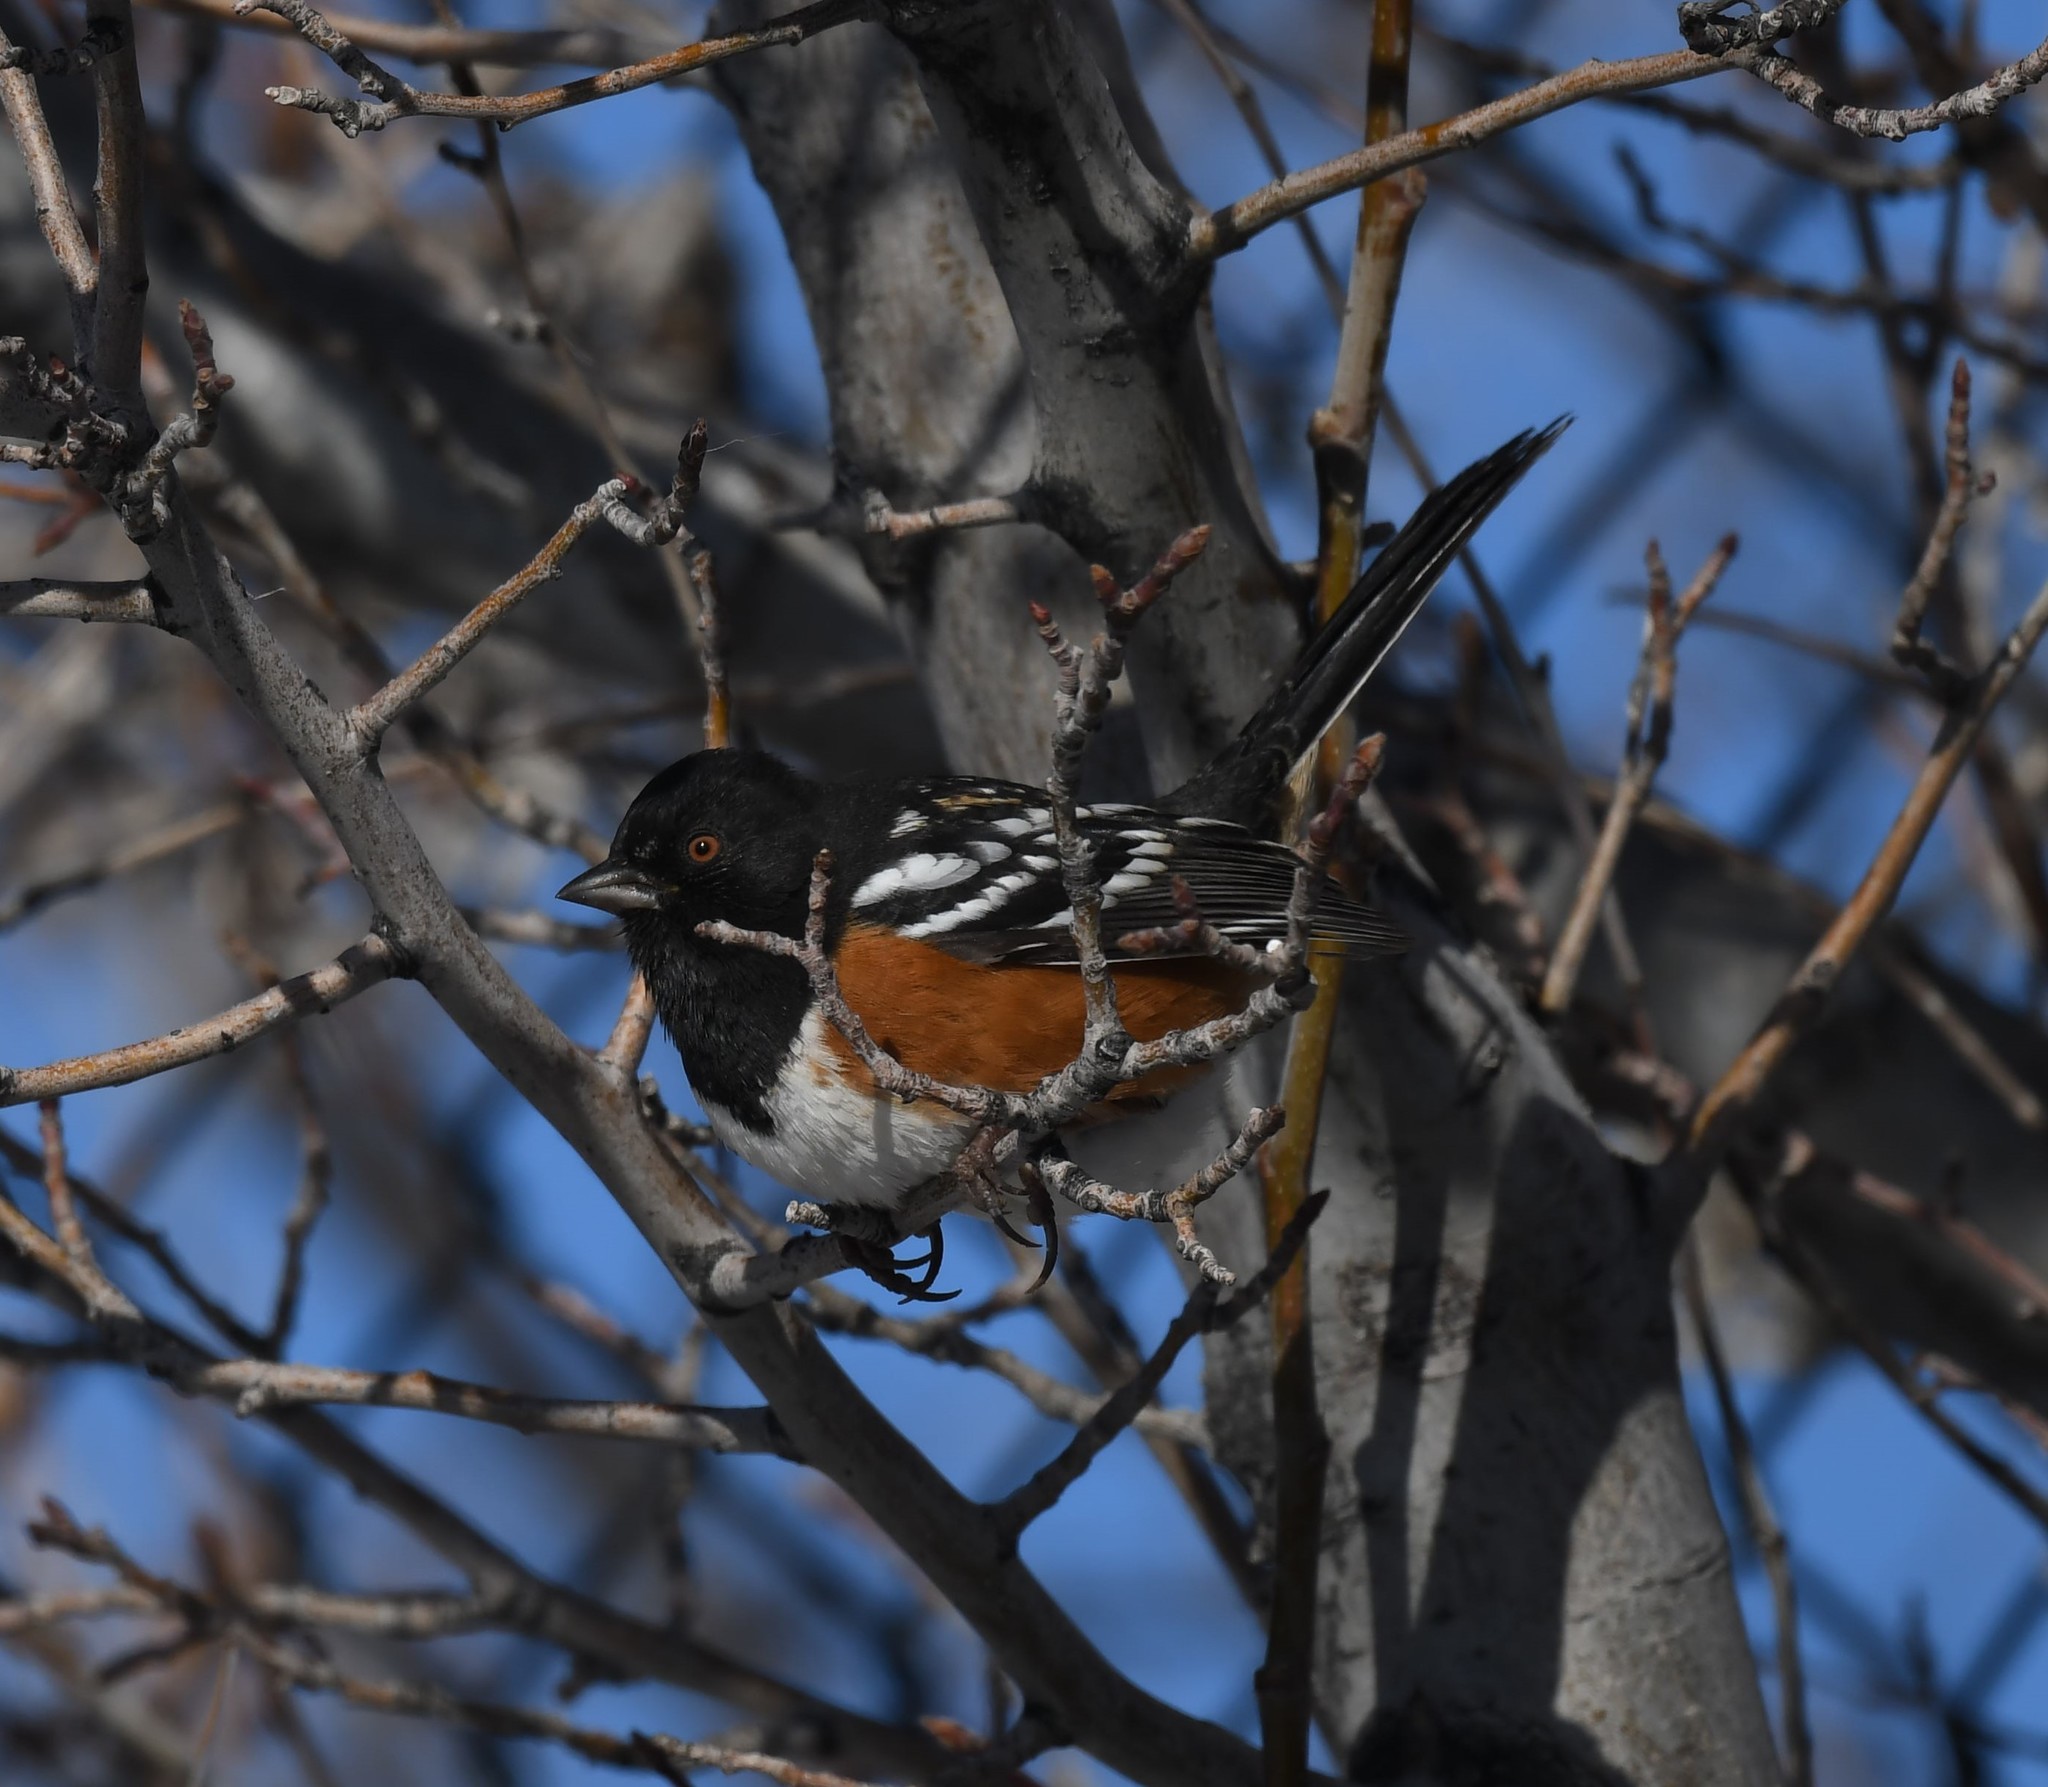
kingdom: Animalia
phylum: Chordata
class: Aves
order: Passeriformes
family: Passerellidae
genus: Pipilo
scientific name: Pipilo maculatus
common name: Spotted towhee
